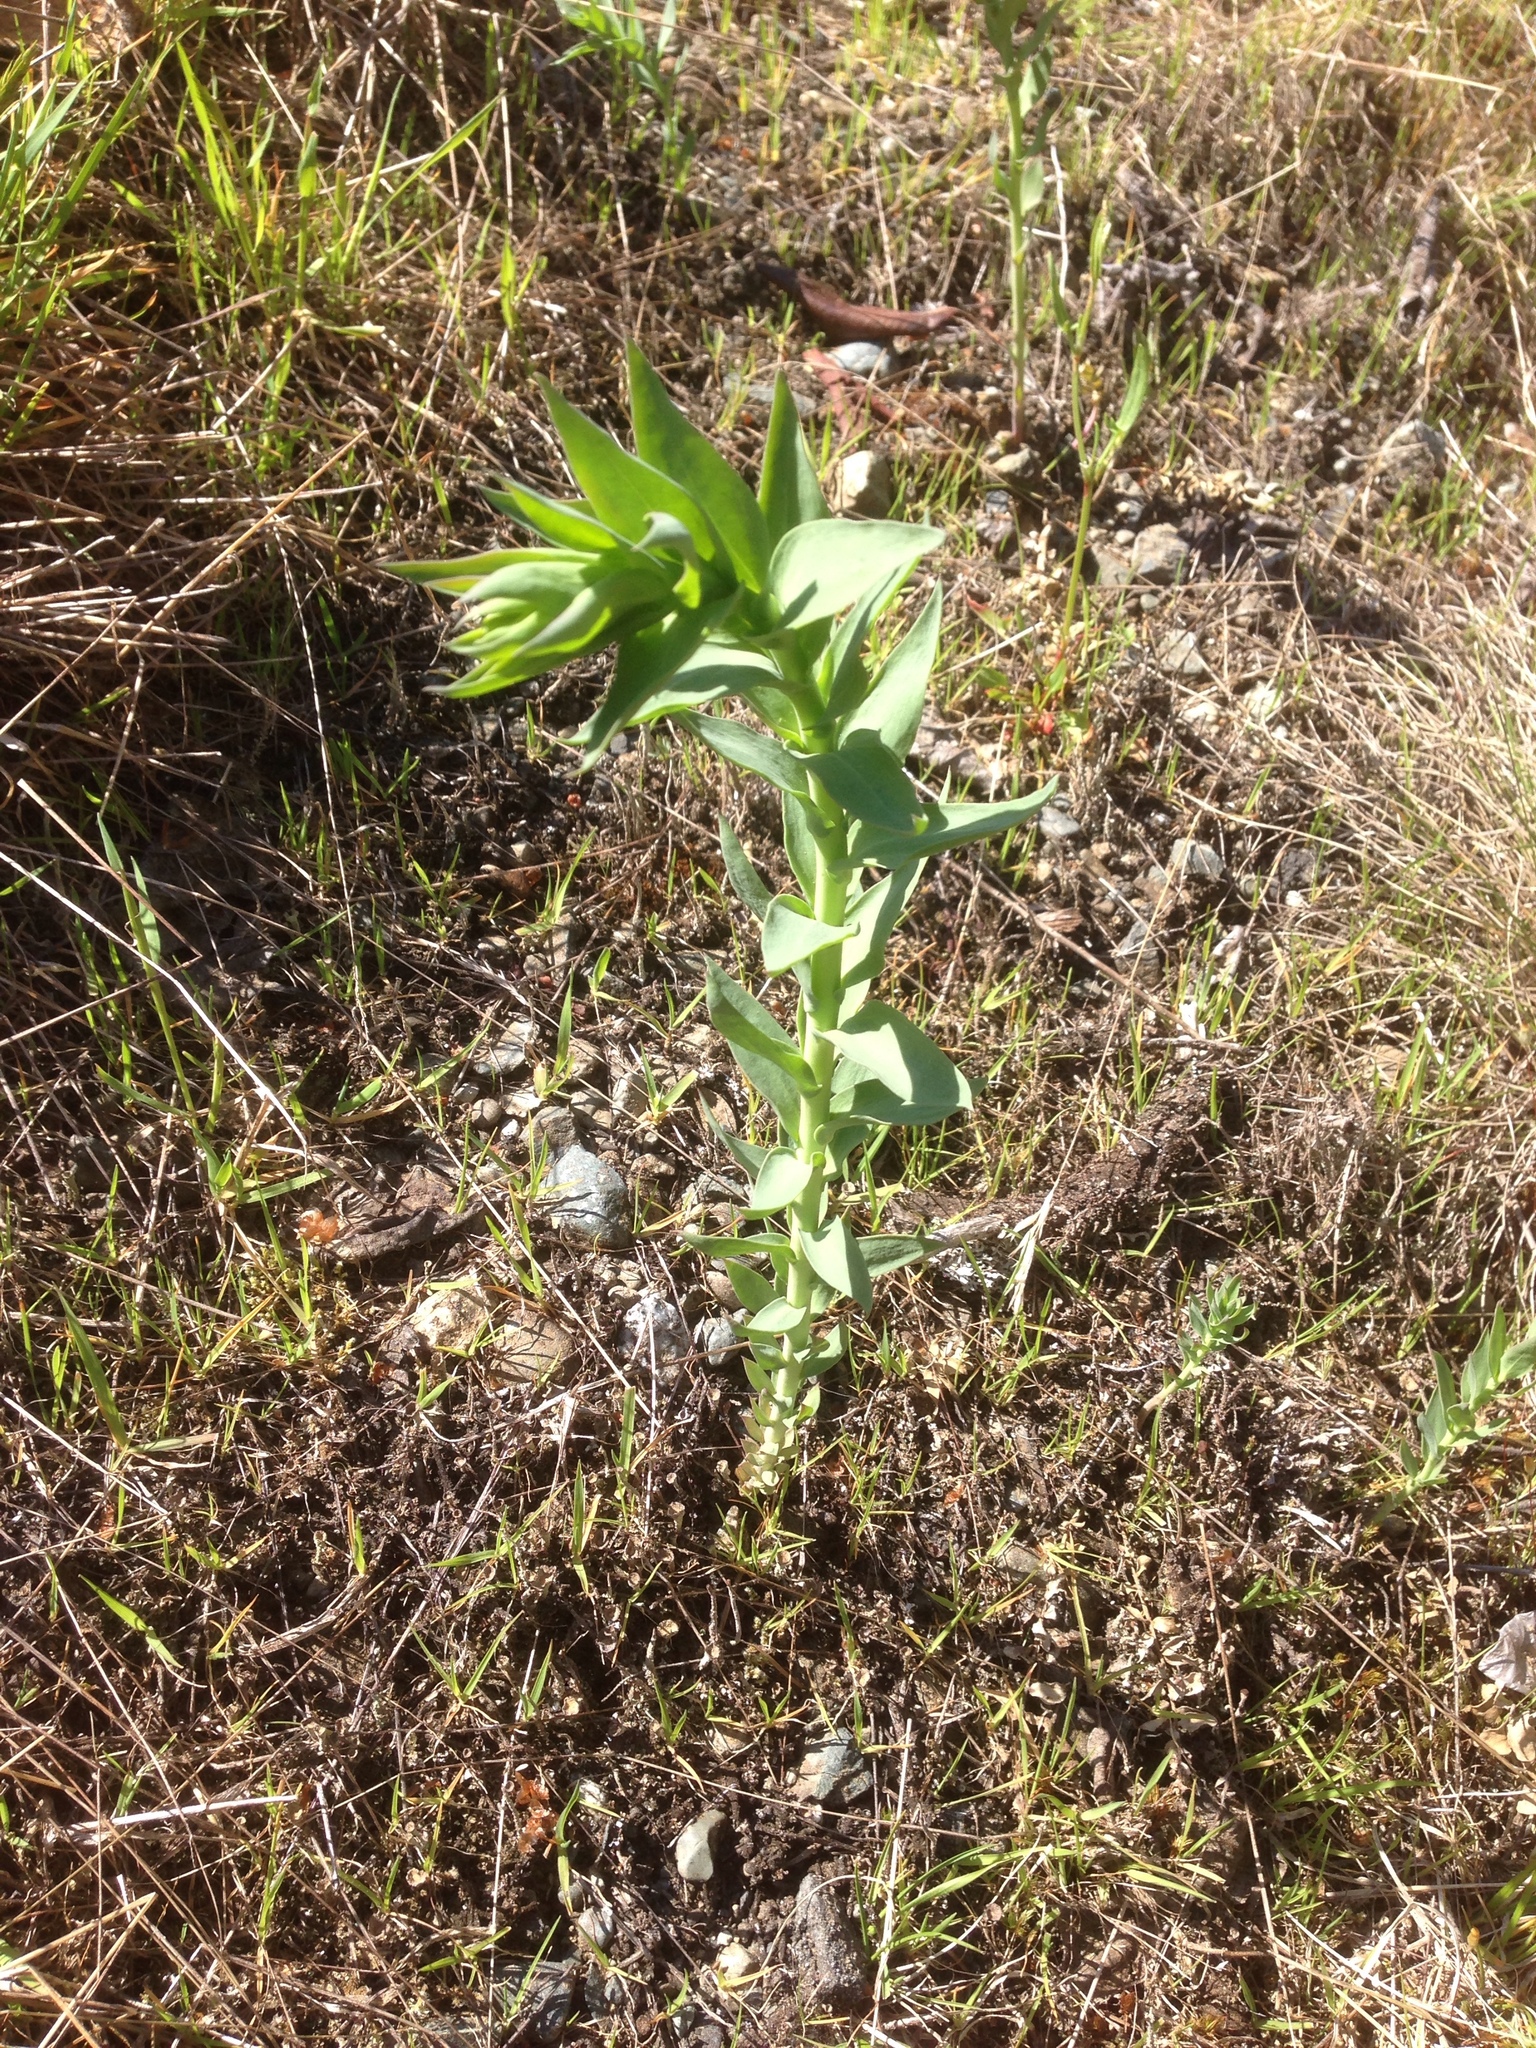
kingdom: Plantae
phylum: Tracheophyta
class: Magnoliopsida
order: Lamiales
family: Plantaginaceae
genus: Linaria
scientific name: Linaria dalmatica
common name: Dalmatian toadflax
